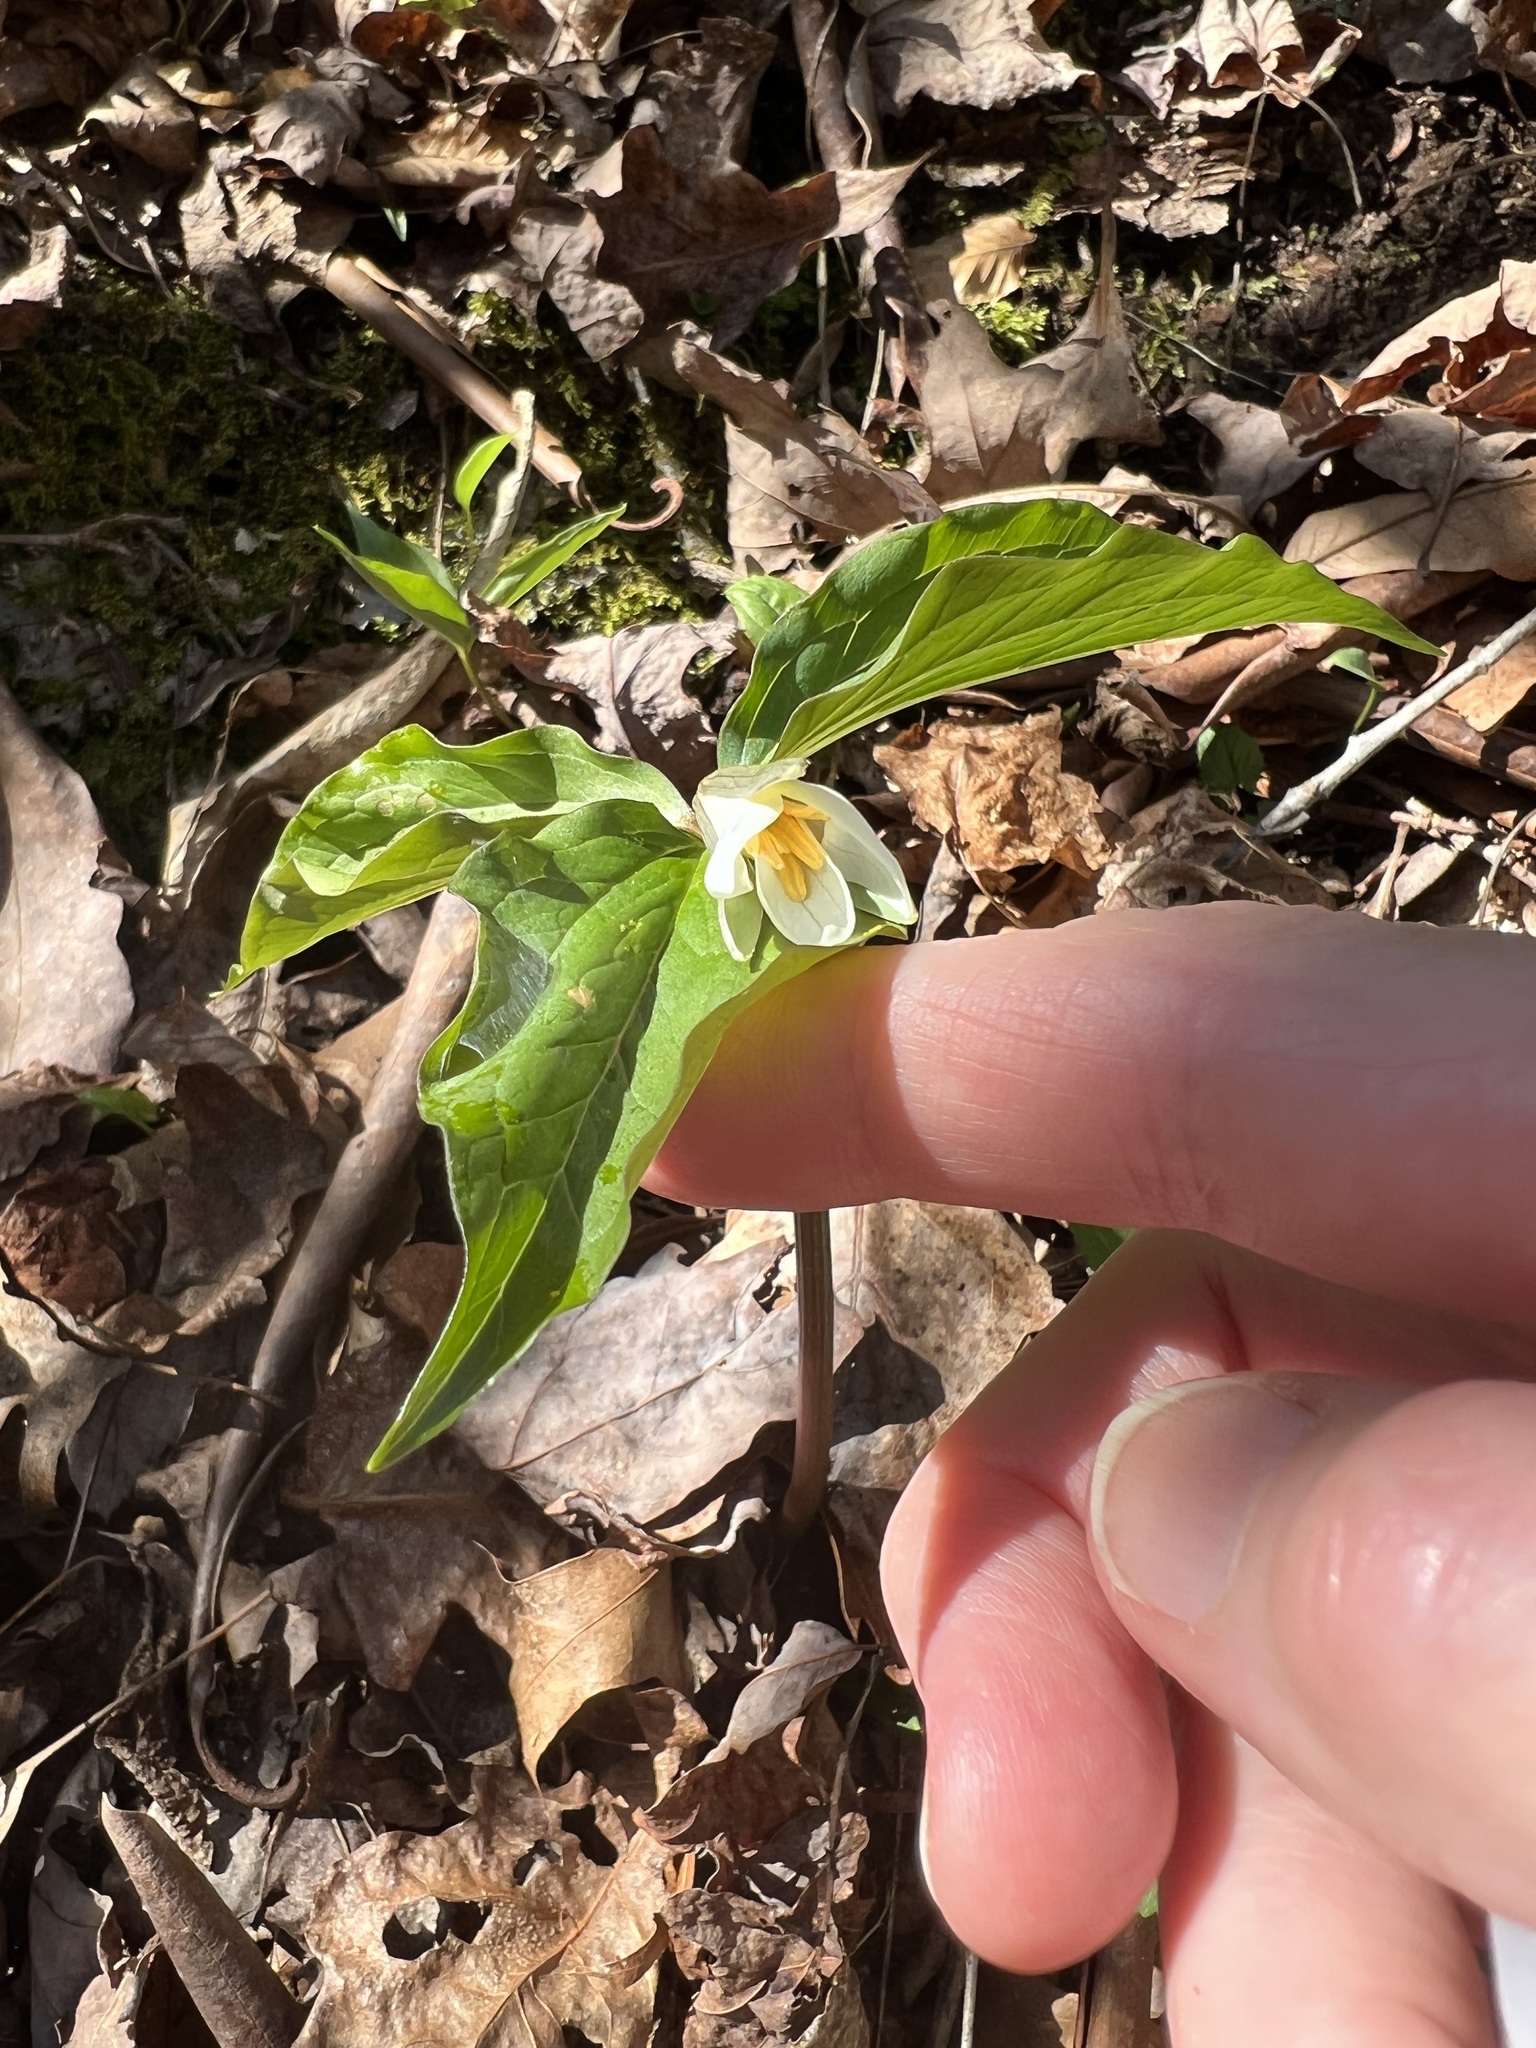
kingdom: Plantae
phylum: Tracheophyta
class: Liliopsida
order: Liliales
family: Melanthiaceae
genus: Trillium
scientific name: Trillium catesbaei
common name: Bashful trillium
